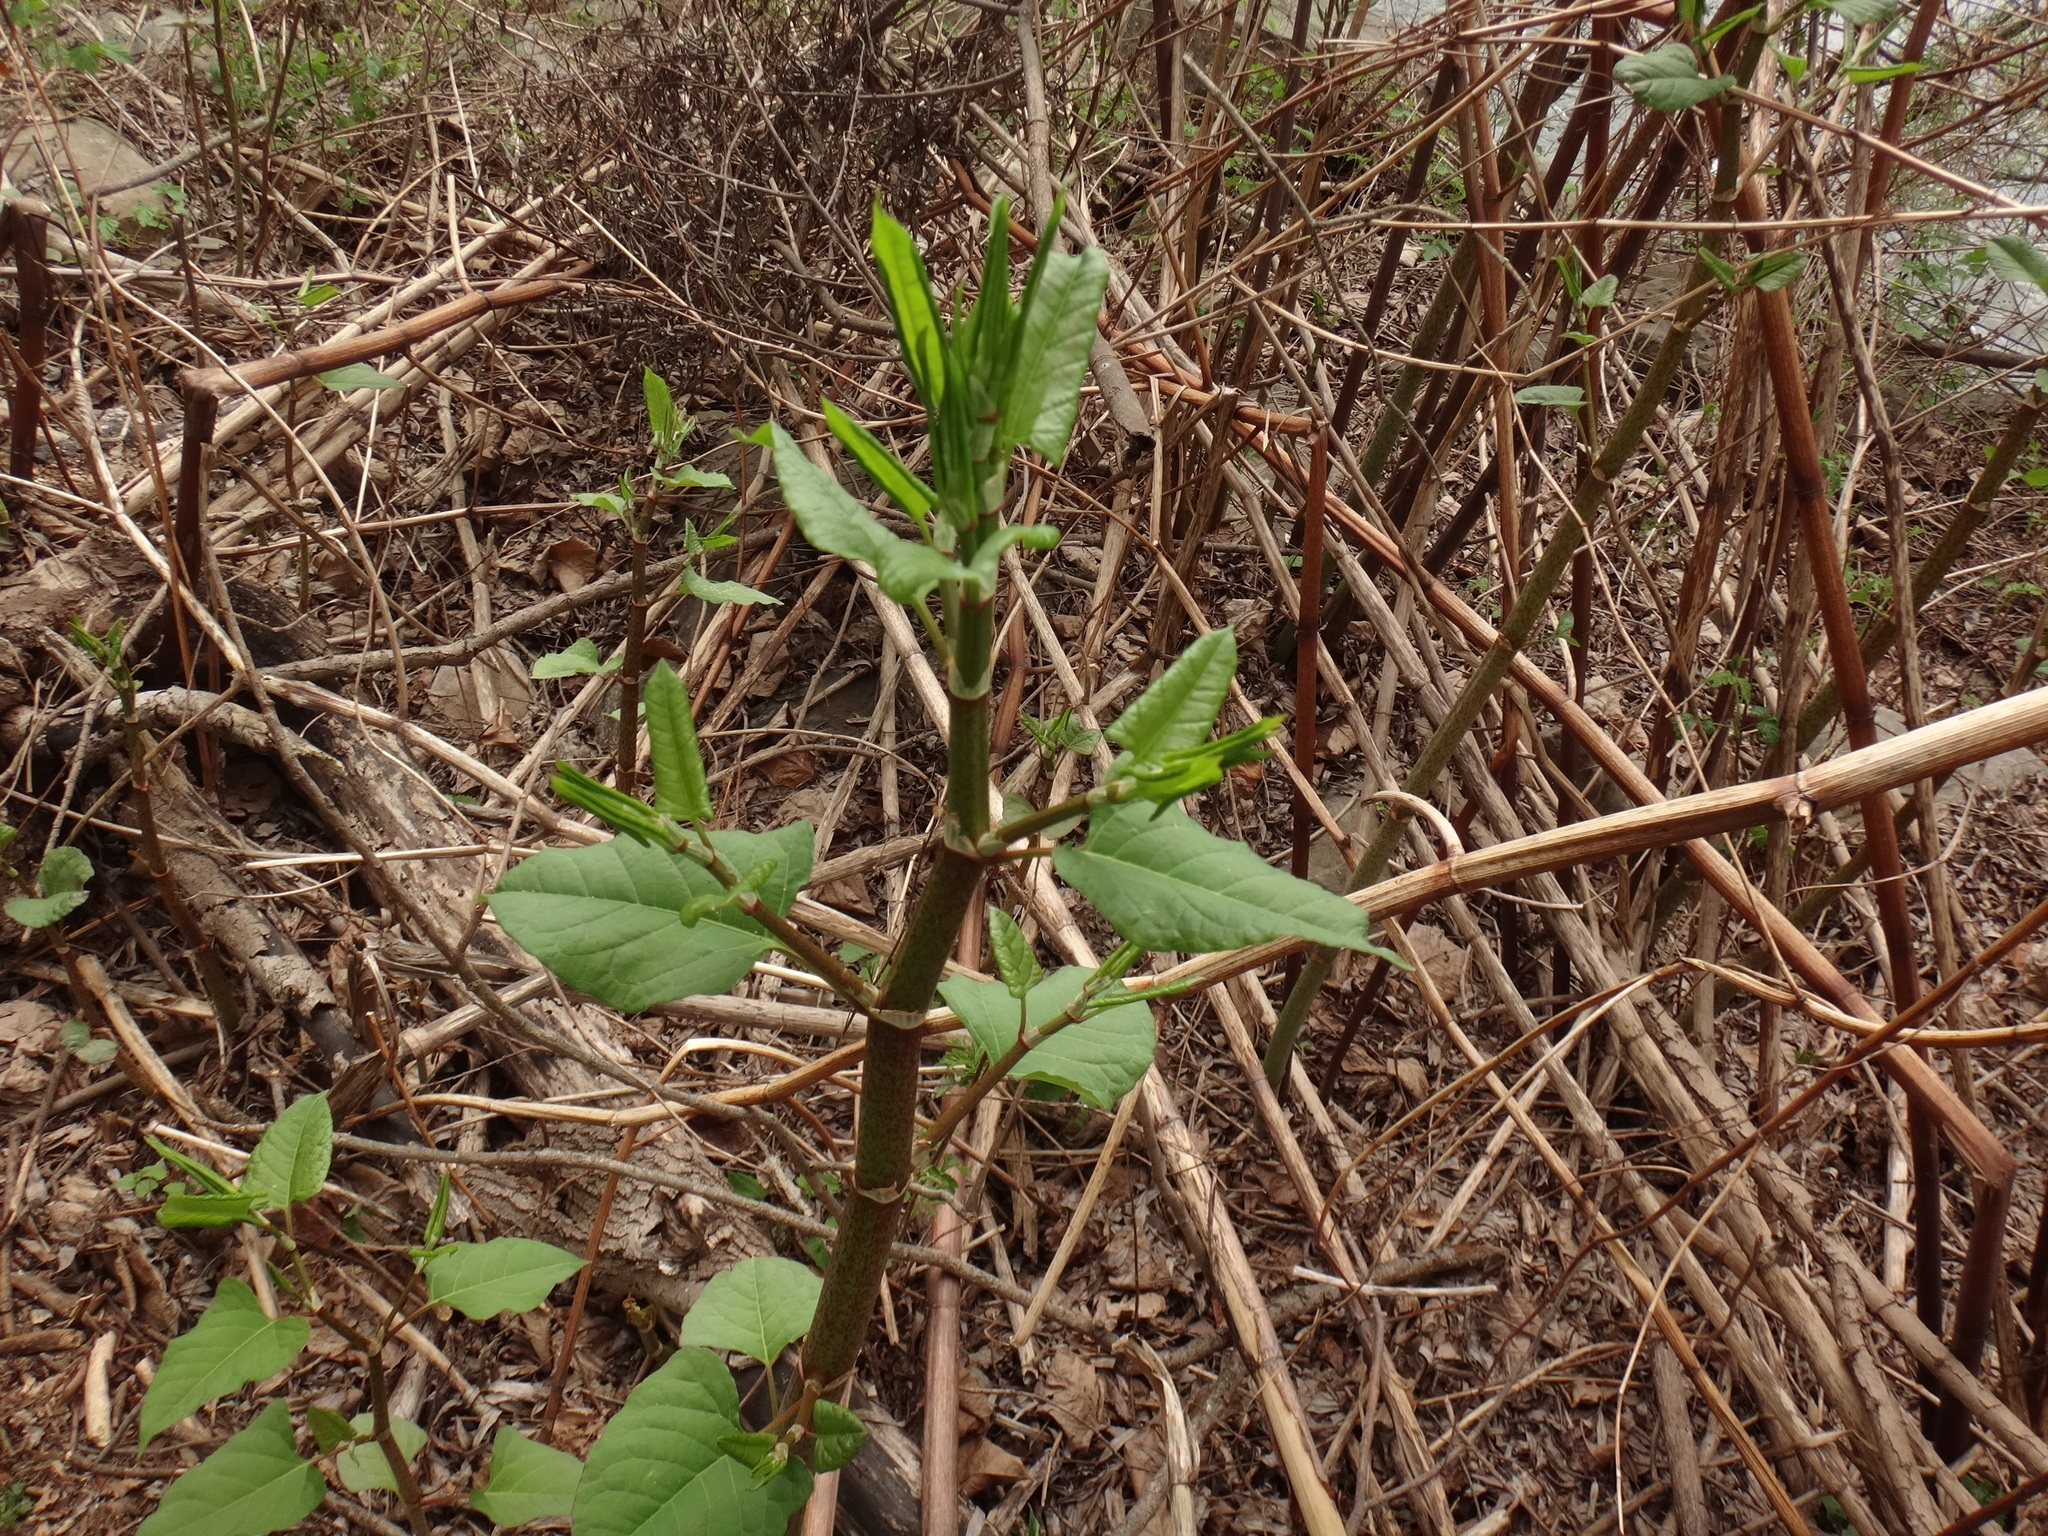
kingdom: Plantae
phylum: Tracheophyta
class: Magnoliopsida
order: Caryophyllales
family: Polygonaceae
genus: Reynoutria
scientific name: Reynoutria bohemica
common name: Bohemian knotweed
